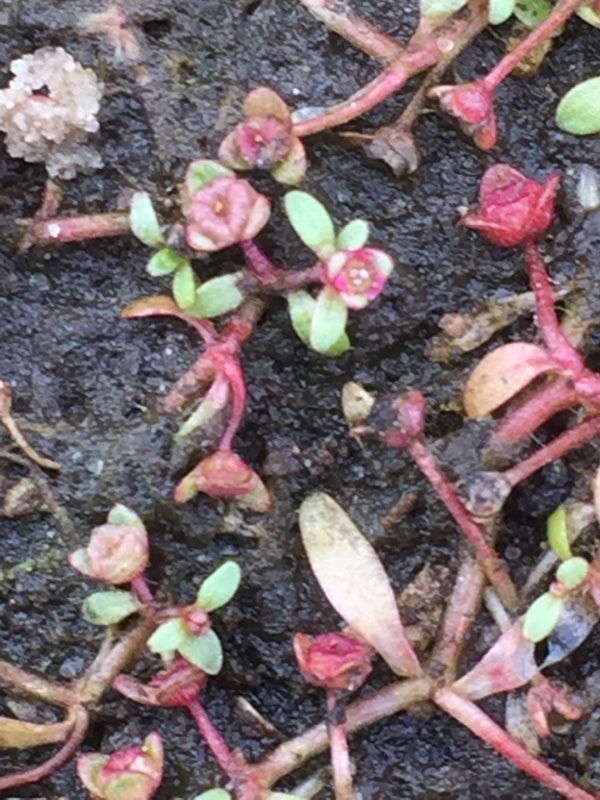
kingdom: Plantae
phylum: Tracheophyta
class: Magnoliopsida
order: Malpighiales
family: Elatinaceae
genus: Elatine
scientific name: Elatine hexandra
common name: Six-stamened waterwort
